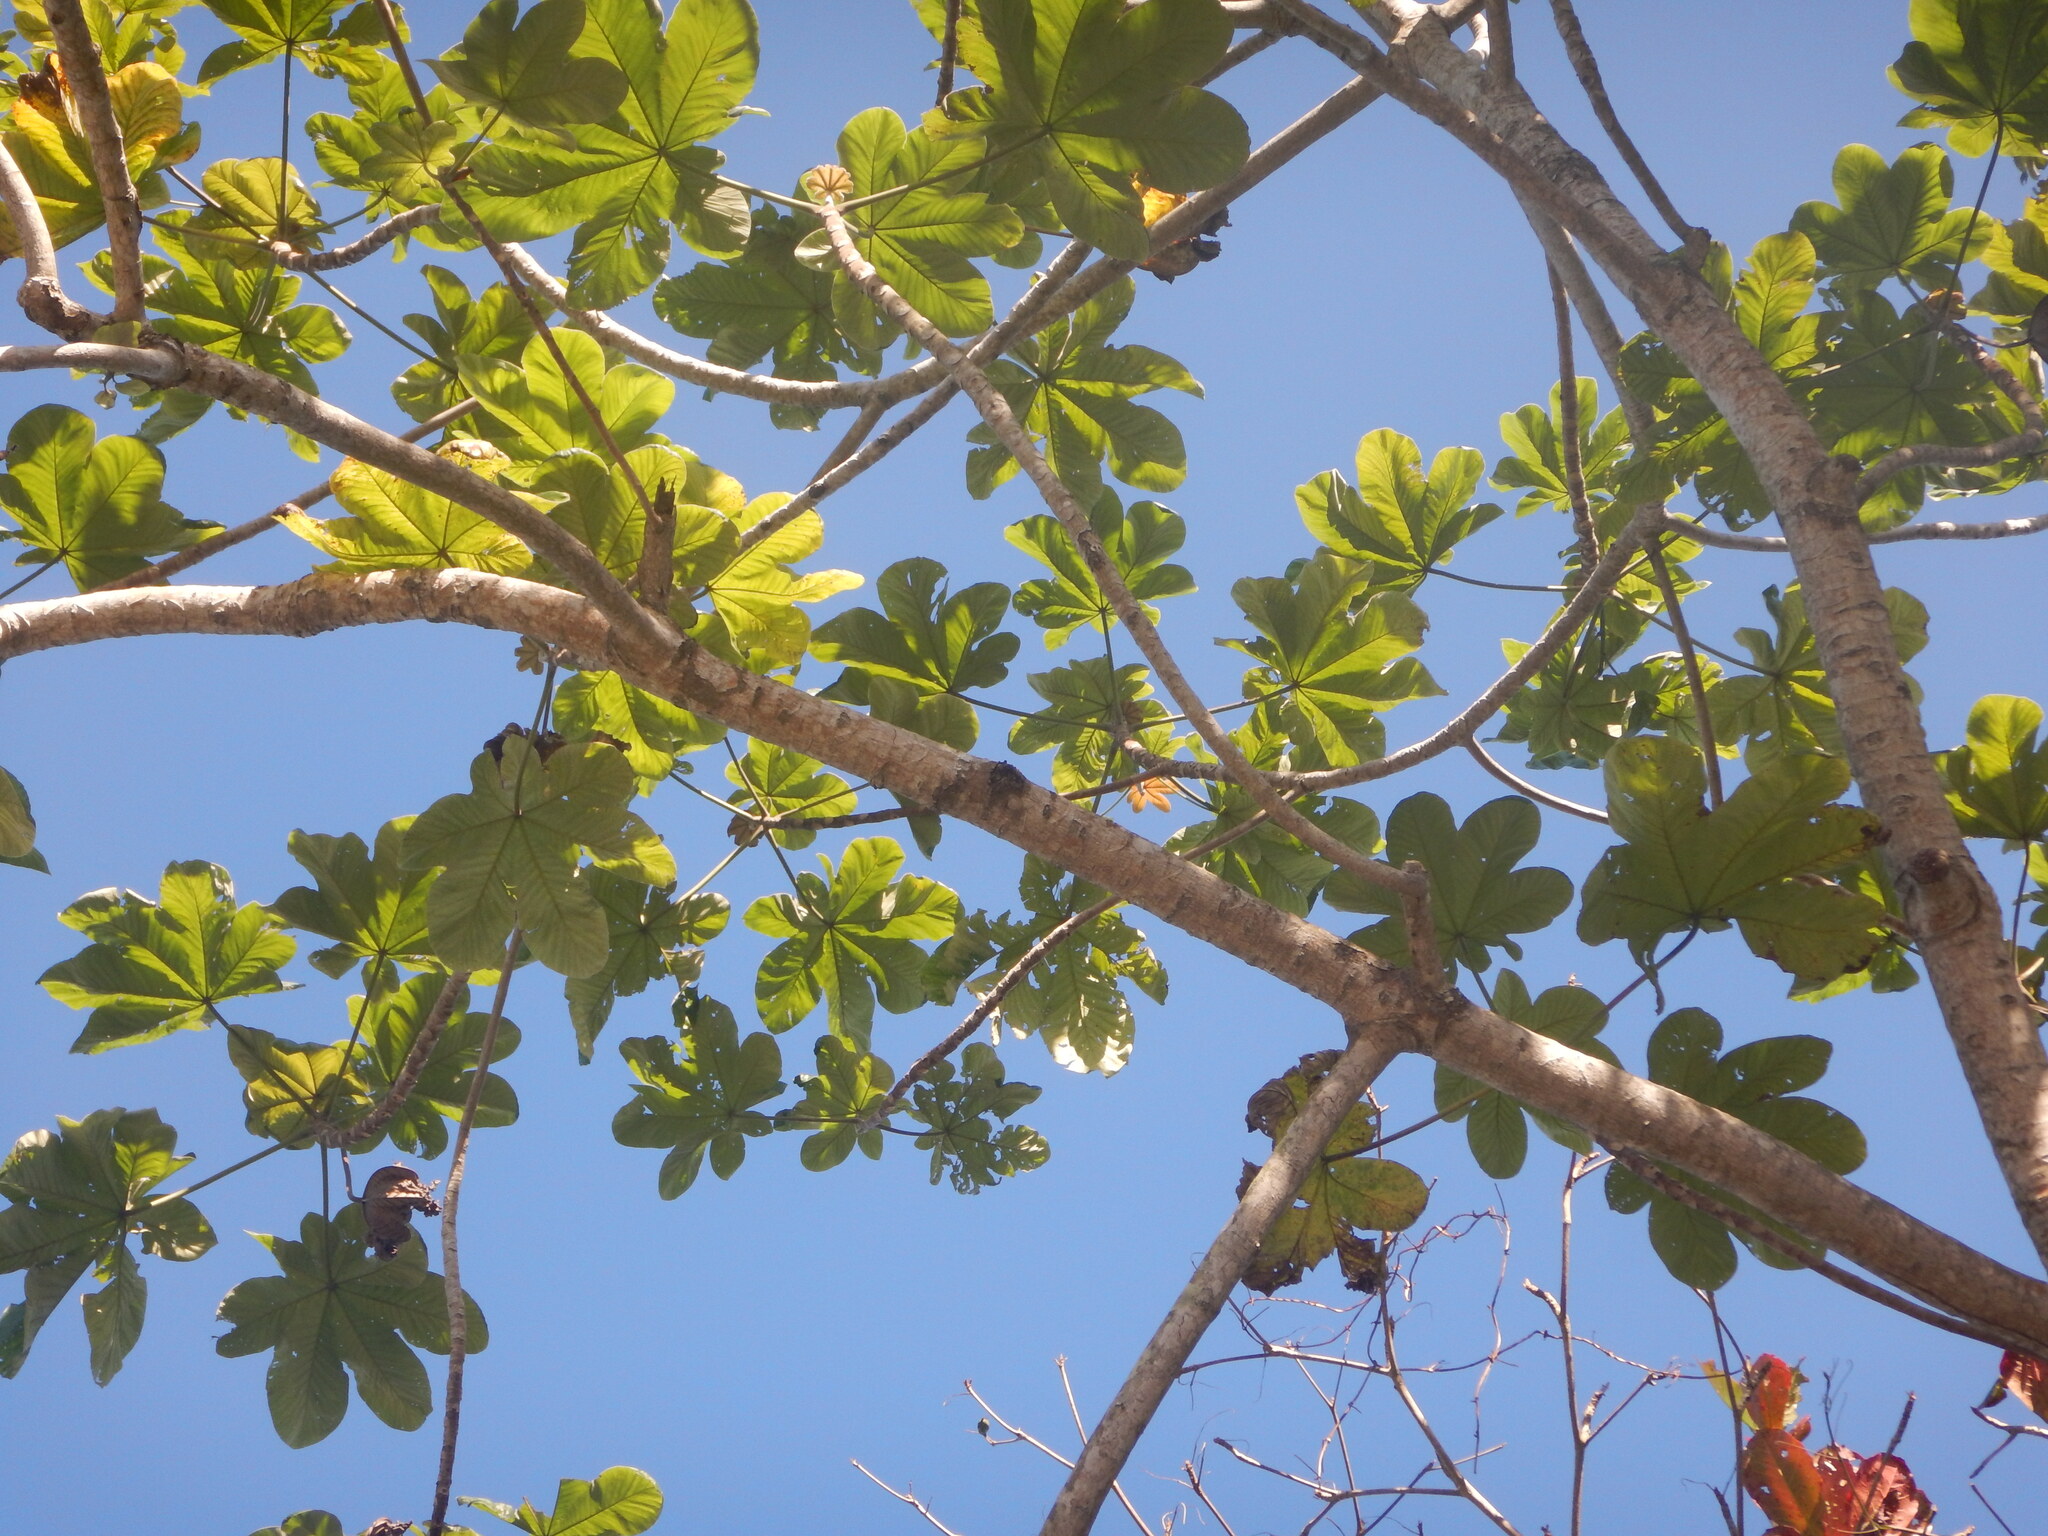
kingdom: Plantae
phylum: Tracheophyta
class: Magnoliopsida
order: Rosales
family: Urticaceae
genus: Cecropia
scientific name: Cecropia schreberiana
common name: Trumpet tree
